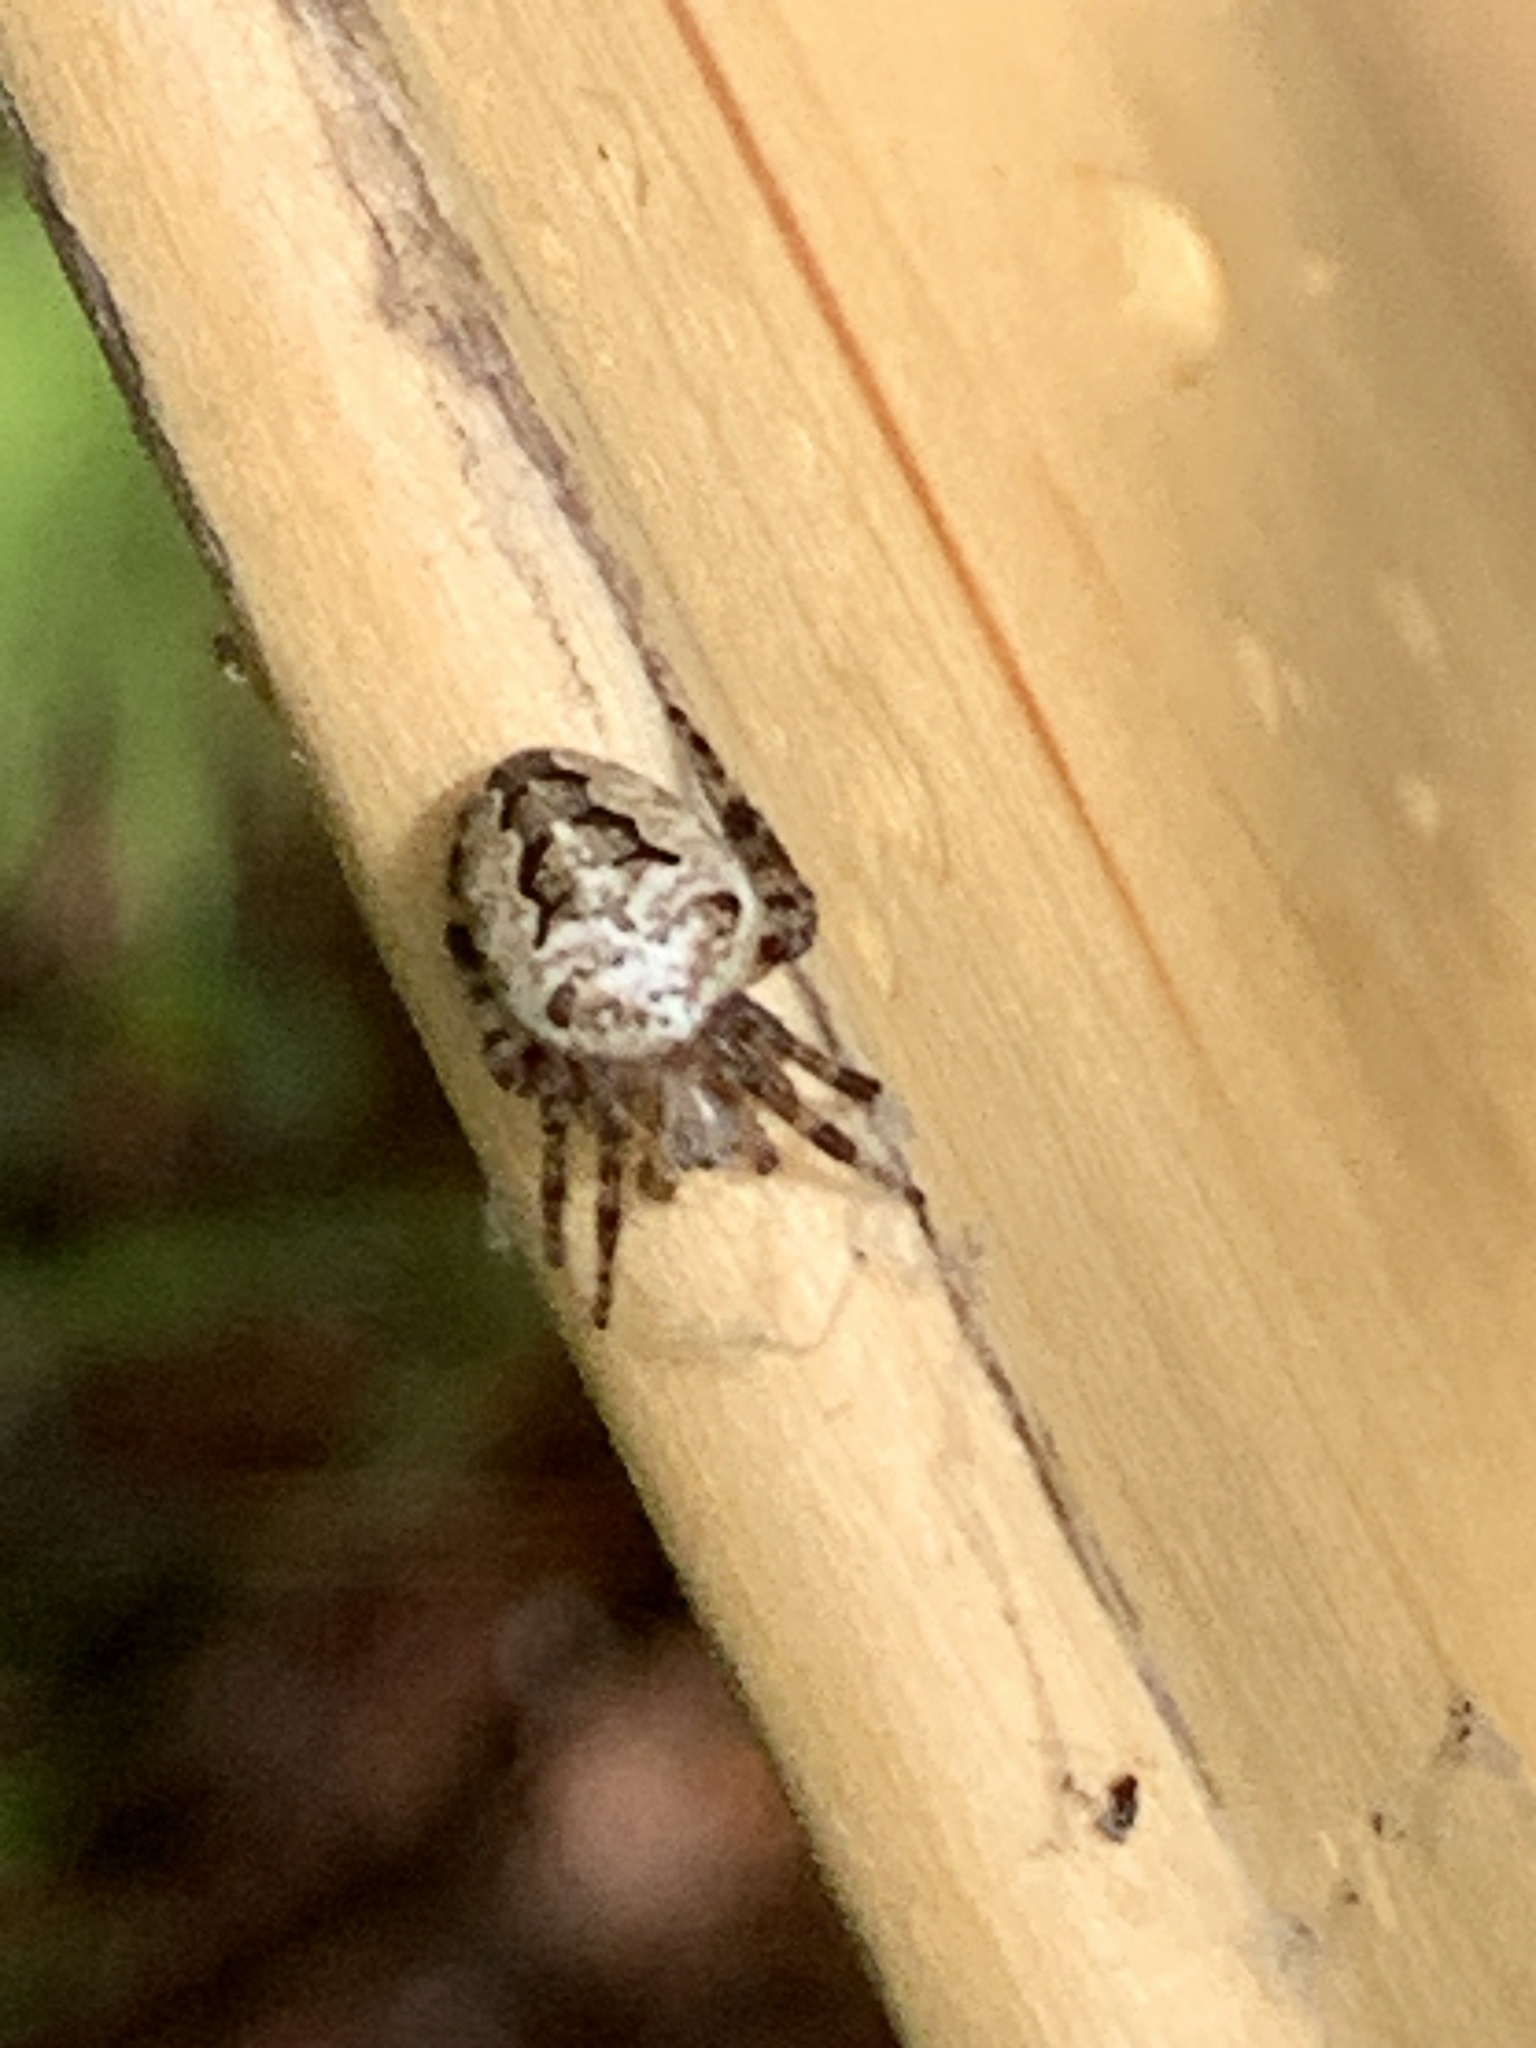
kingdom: Animalia
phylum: Arthropoda
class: Arachnida
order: Araneae
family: Araneidae
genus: Eustala
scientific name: Eustala
